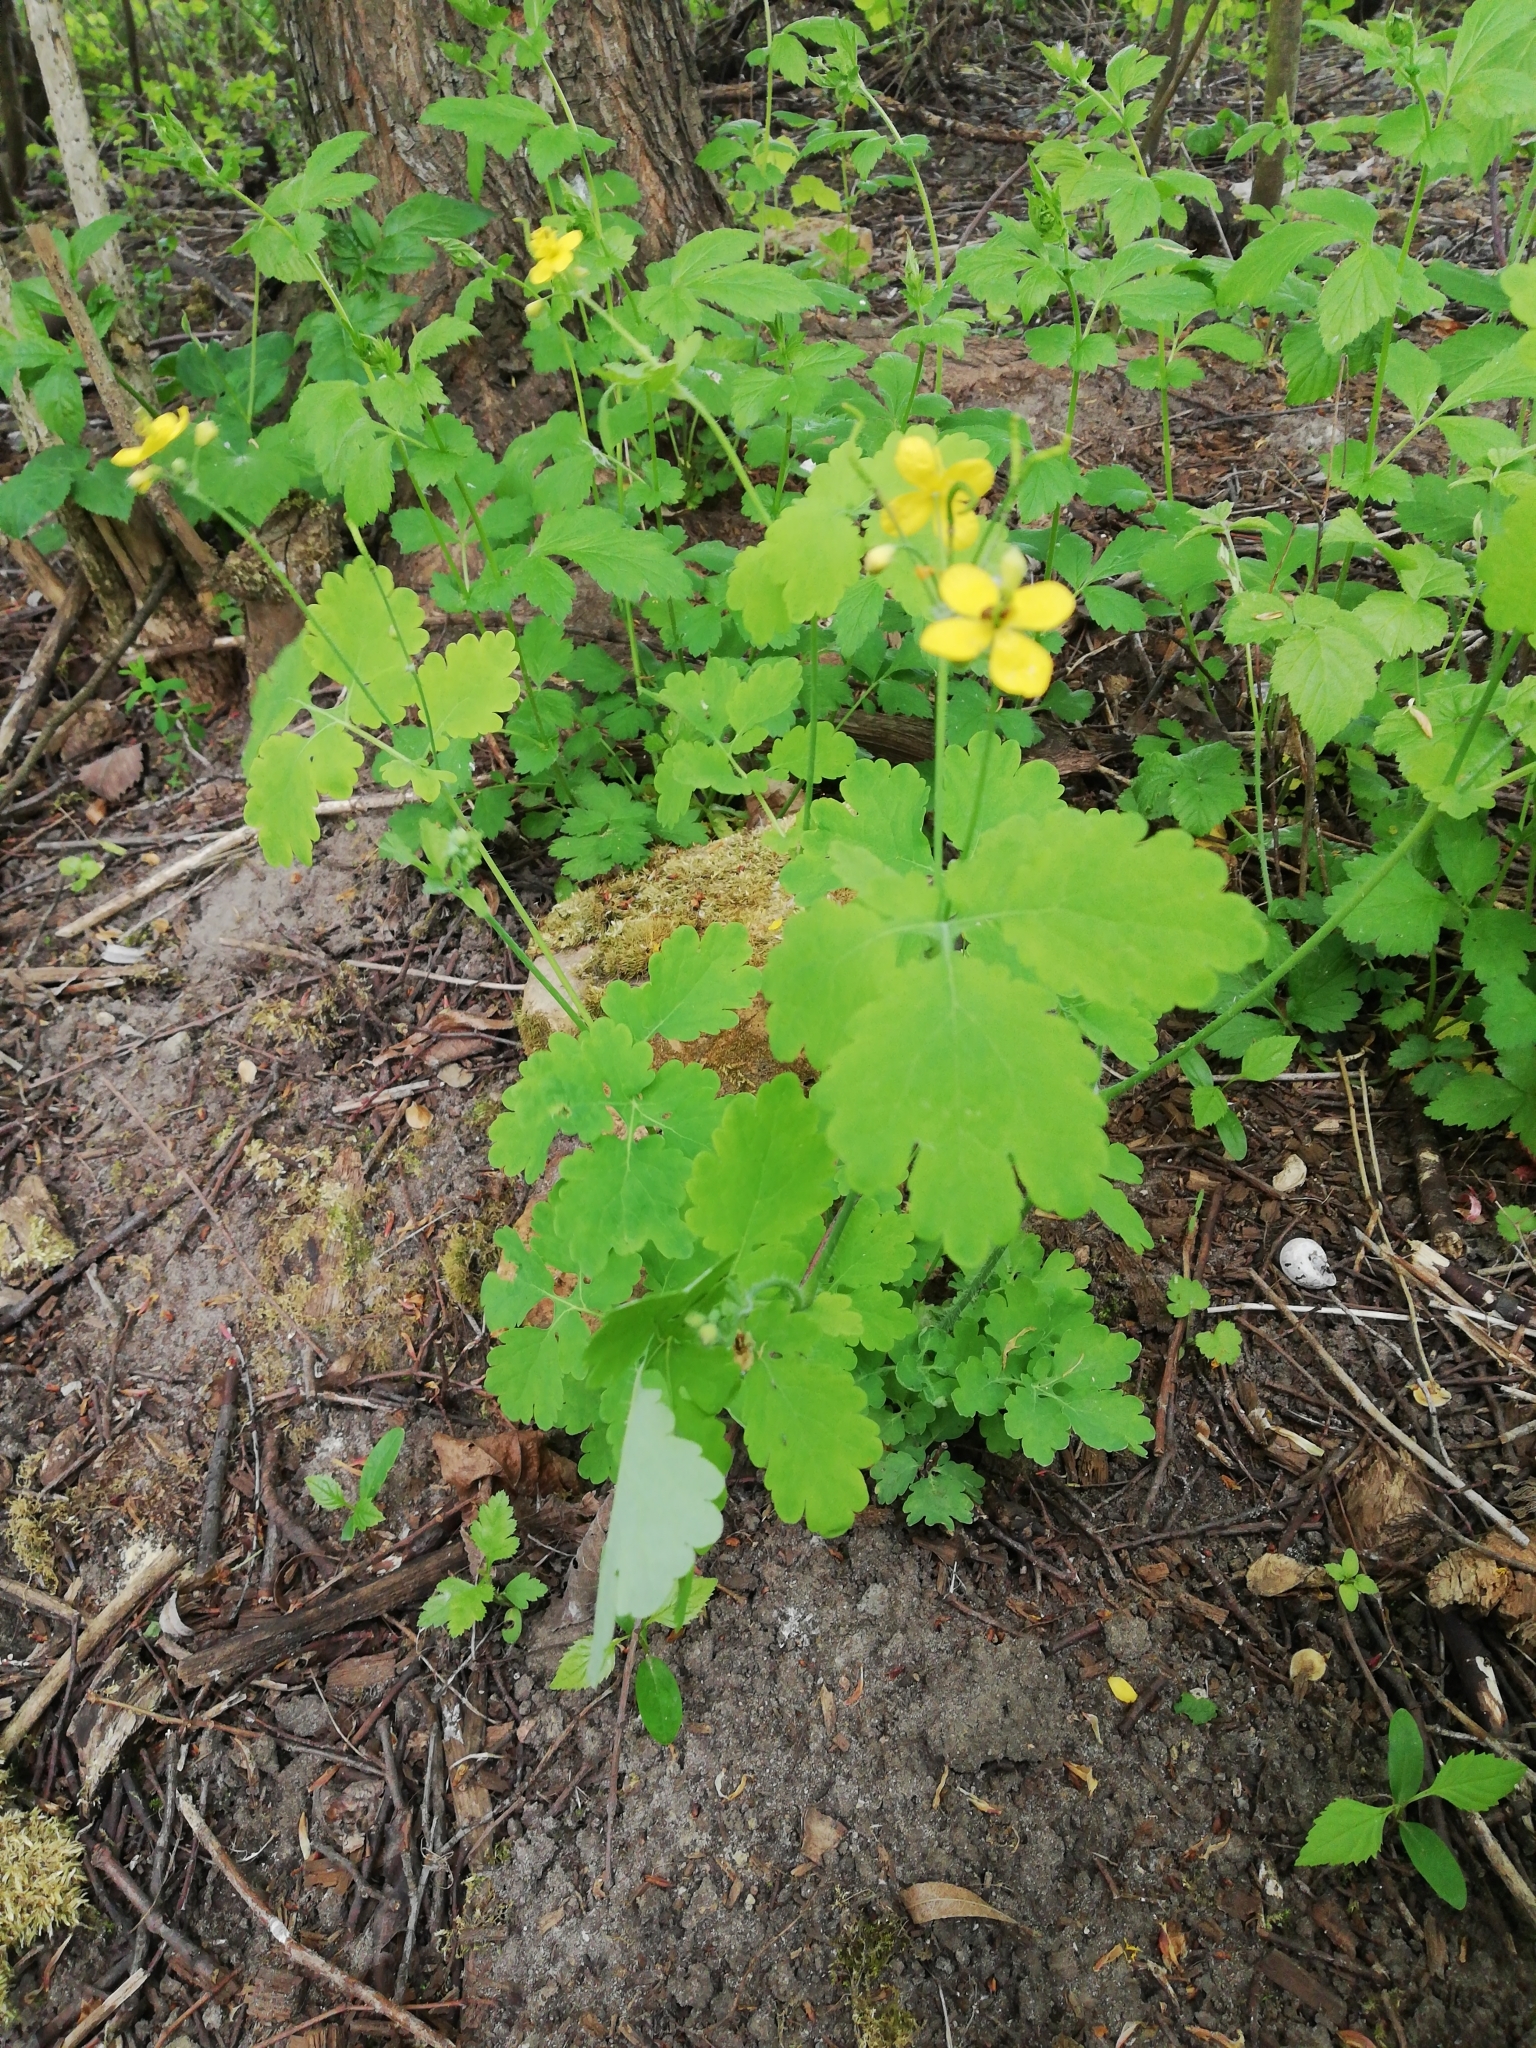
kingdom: Plantae
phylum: Tracheophyta
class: Magnoliopsida
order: Ranunculales
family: Papaveraceae
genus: Chelidonium
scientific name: Chelidonium majus
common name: Greater celandine
